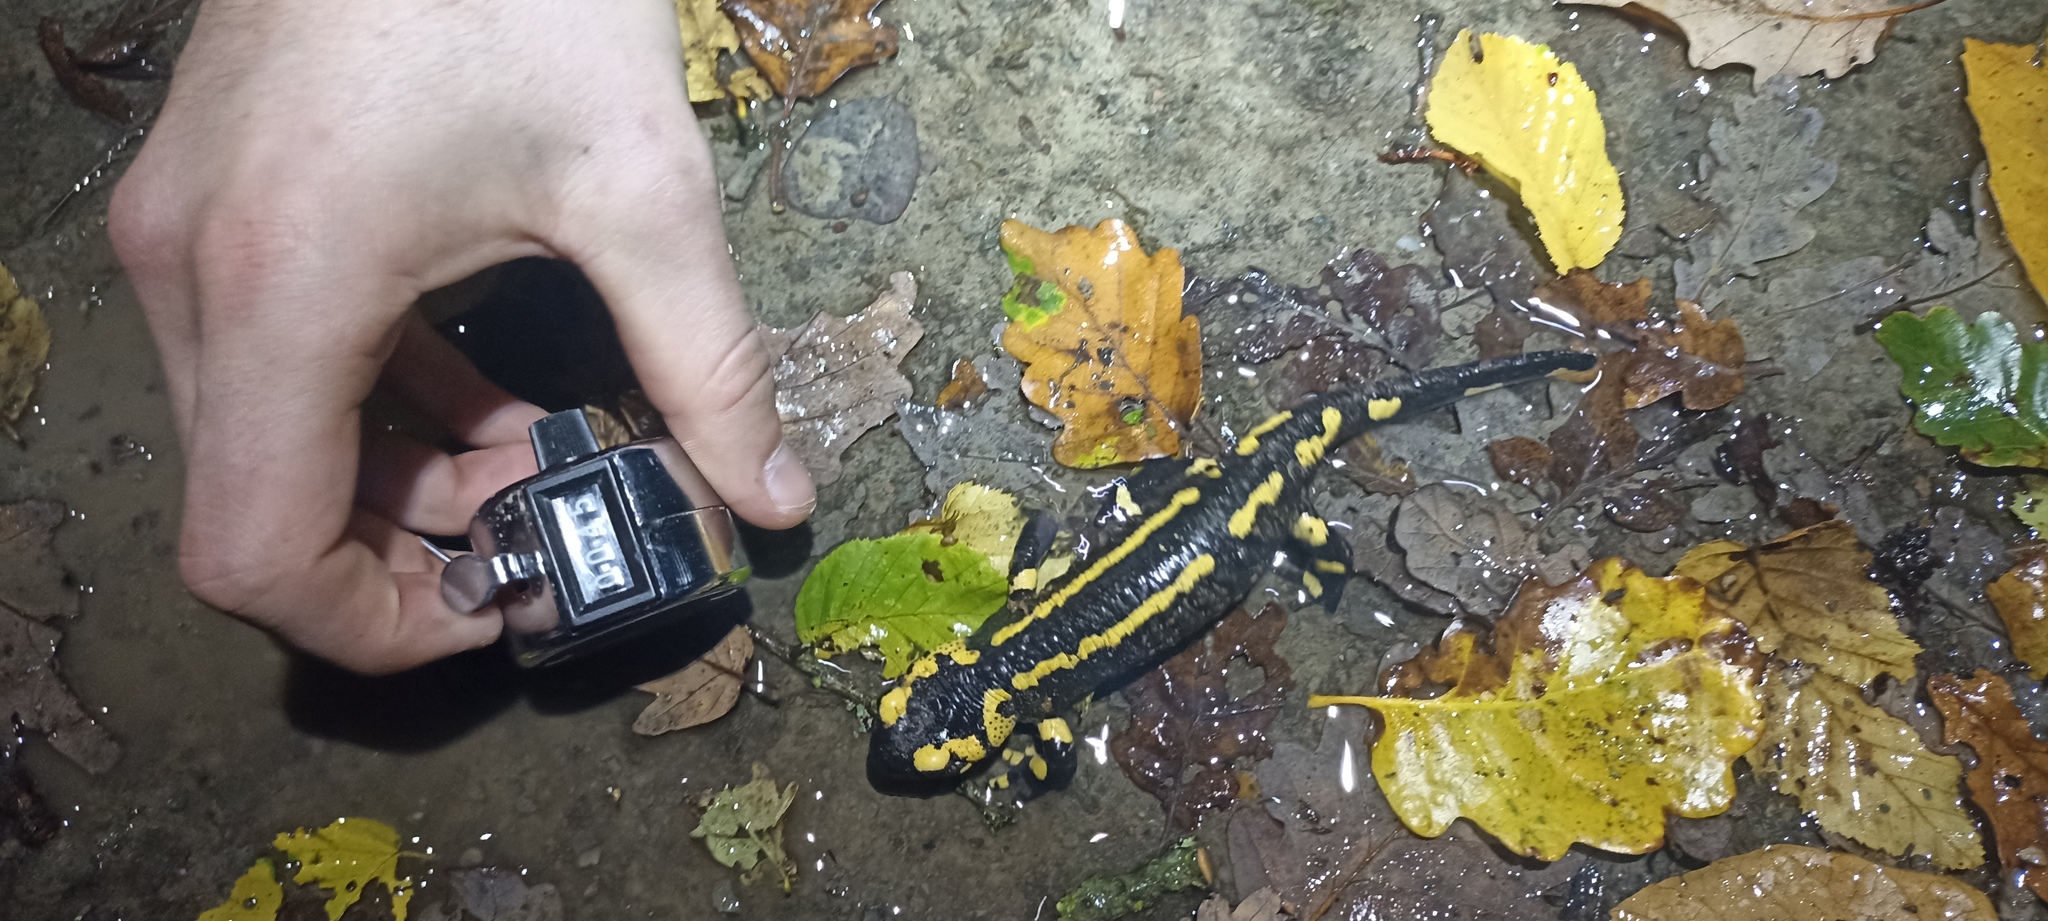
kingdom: Animalia
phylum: Chordata
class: Amphibia
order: Caudata
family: Salamandridae
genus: Salamandra
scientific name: Salamandra salamandra
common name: Fire salamander
